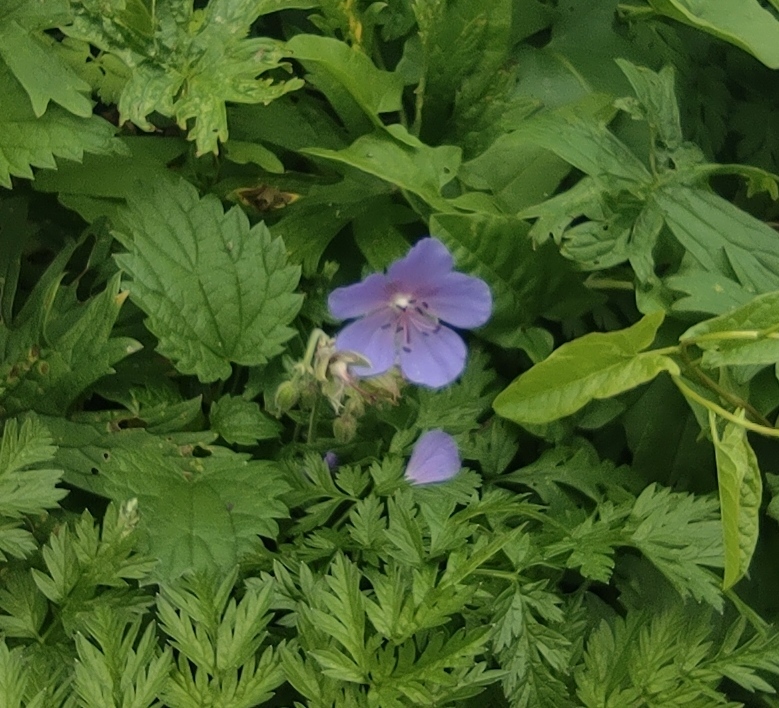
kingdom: Plantae
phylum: Tracheophyta
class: Magnoliopsida
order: Geraniales
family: Geraniaceae
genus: Geranium
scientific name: Geranium pratense
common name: Meadow crane's-bill
